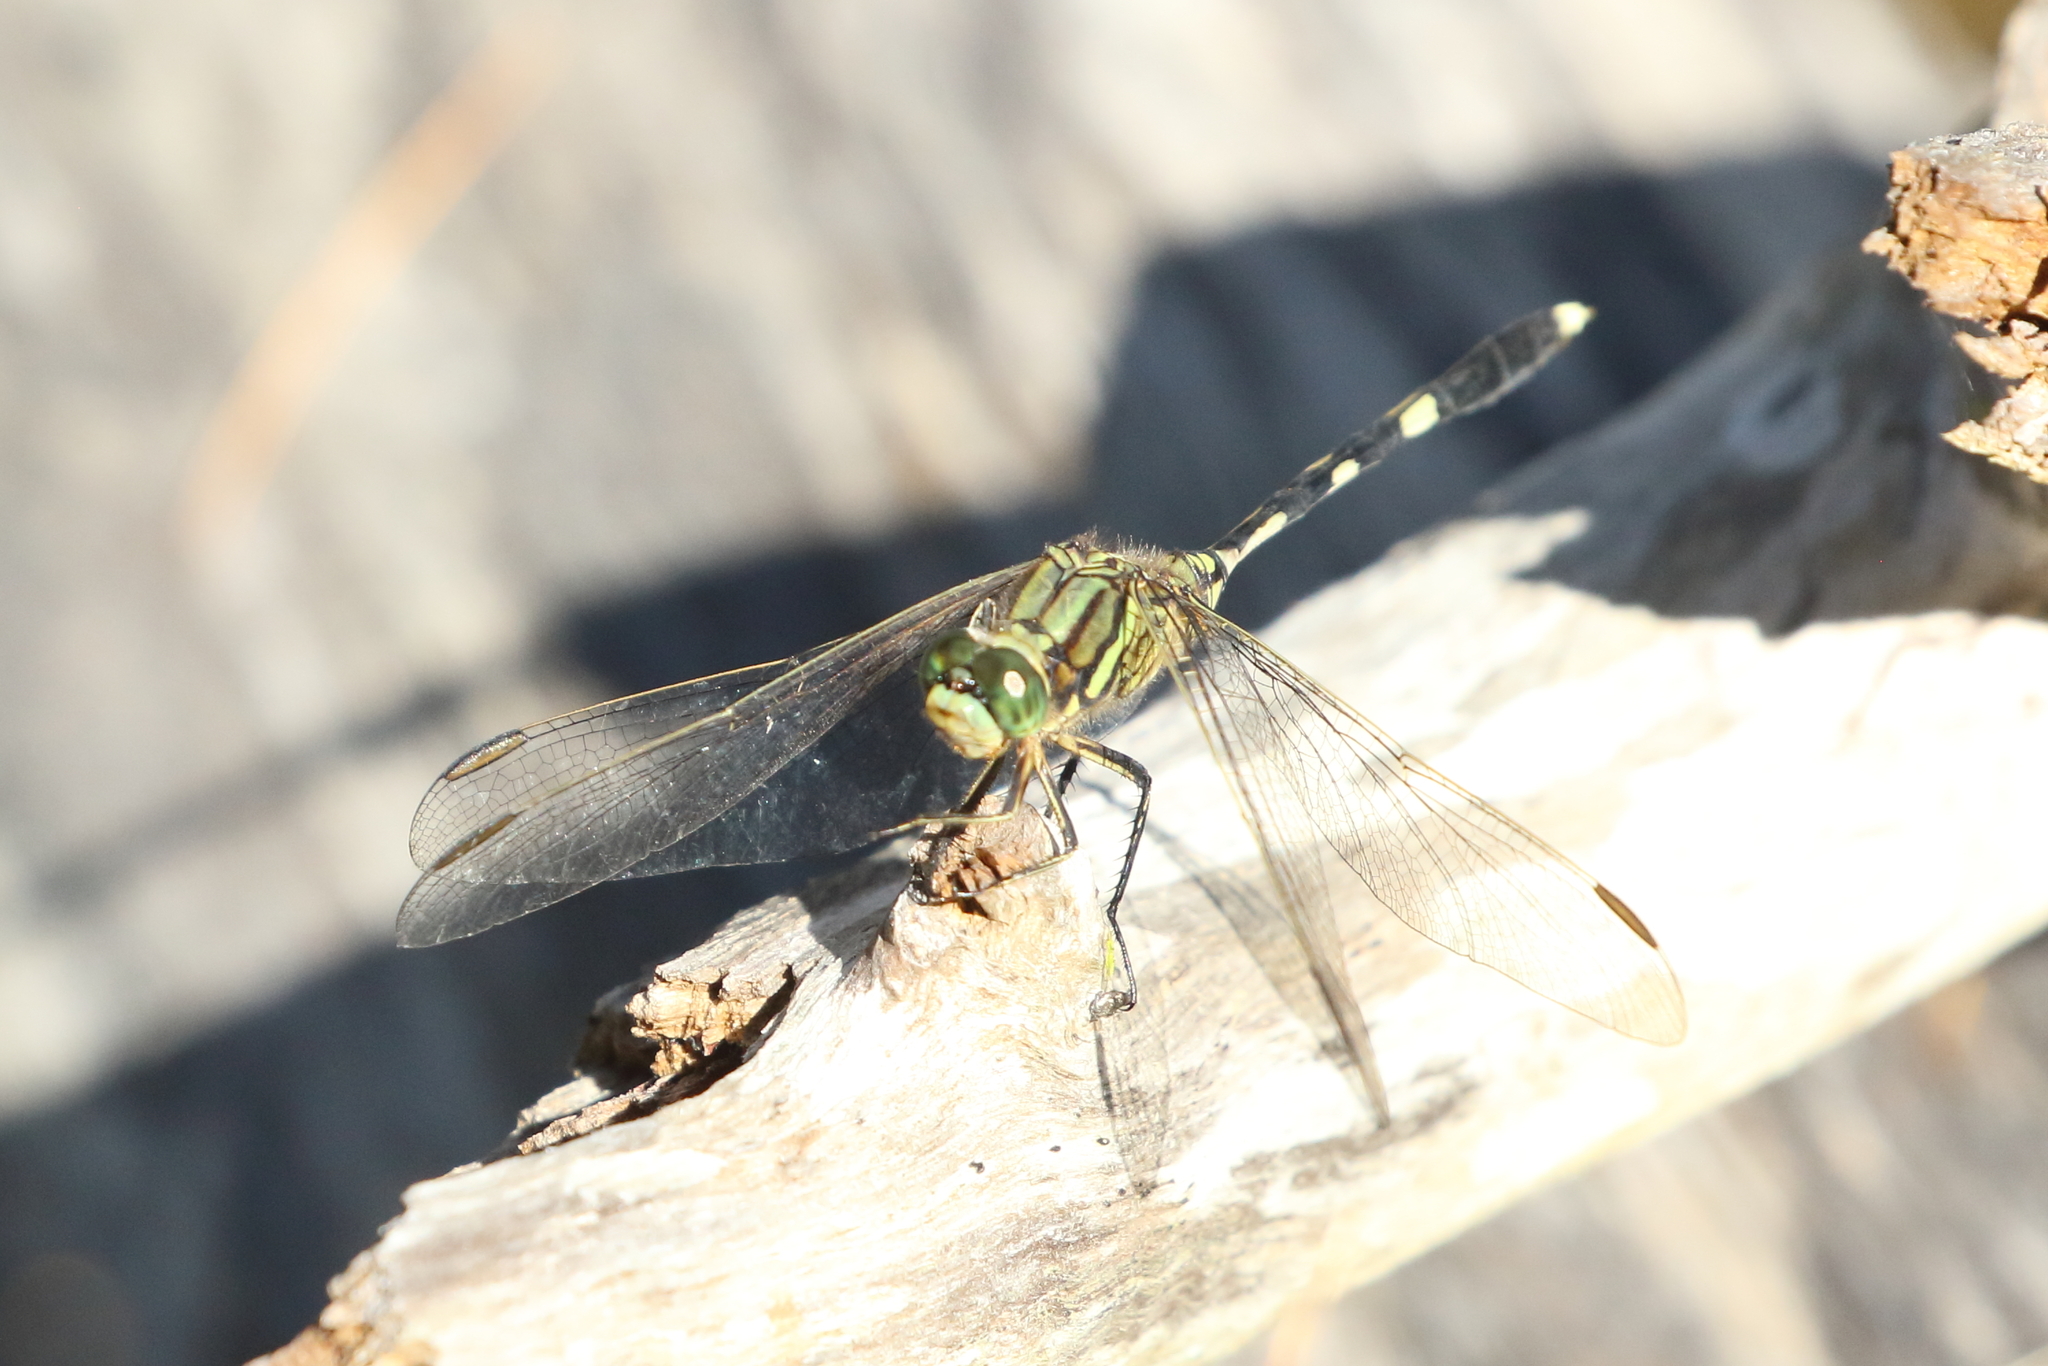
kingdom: Animalia
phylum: Arthropoda
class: Insecta
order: Odonata
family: Libellulidae
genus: Orthetrum
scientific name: Orthetrum sabina
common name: Slender skimmer
